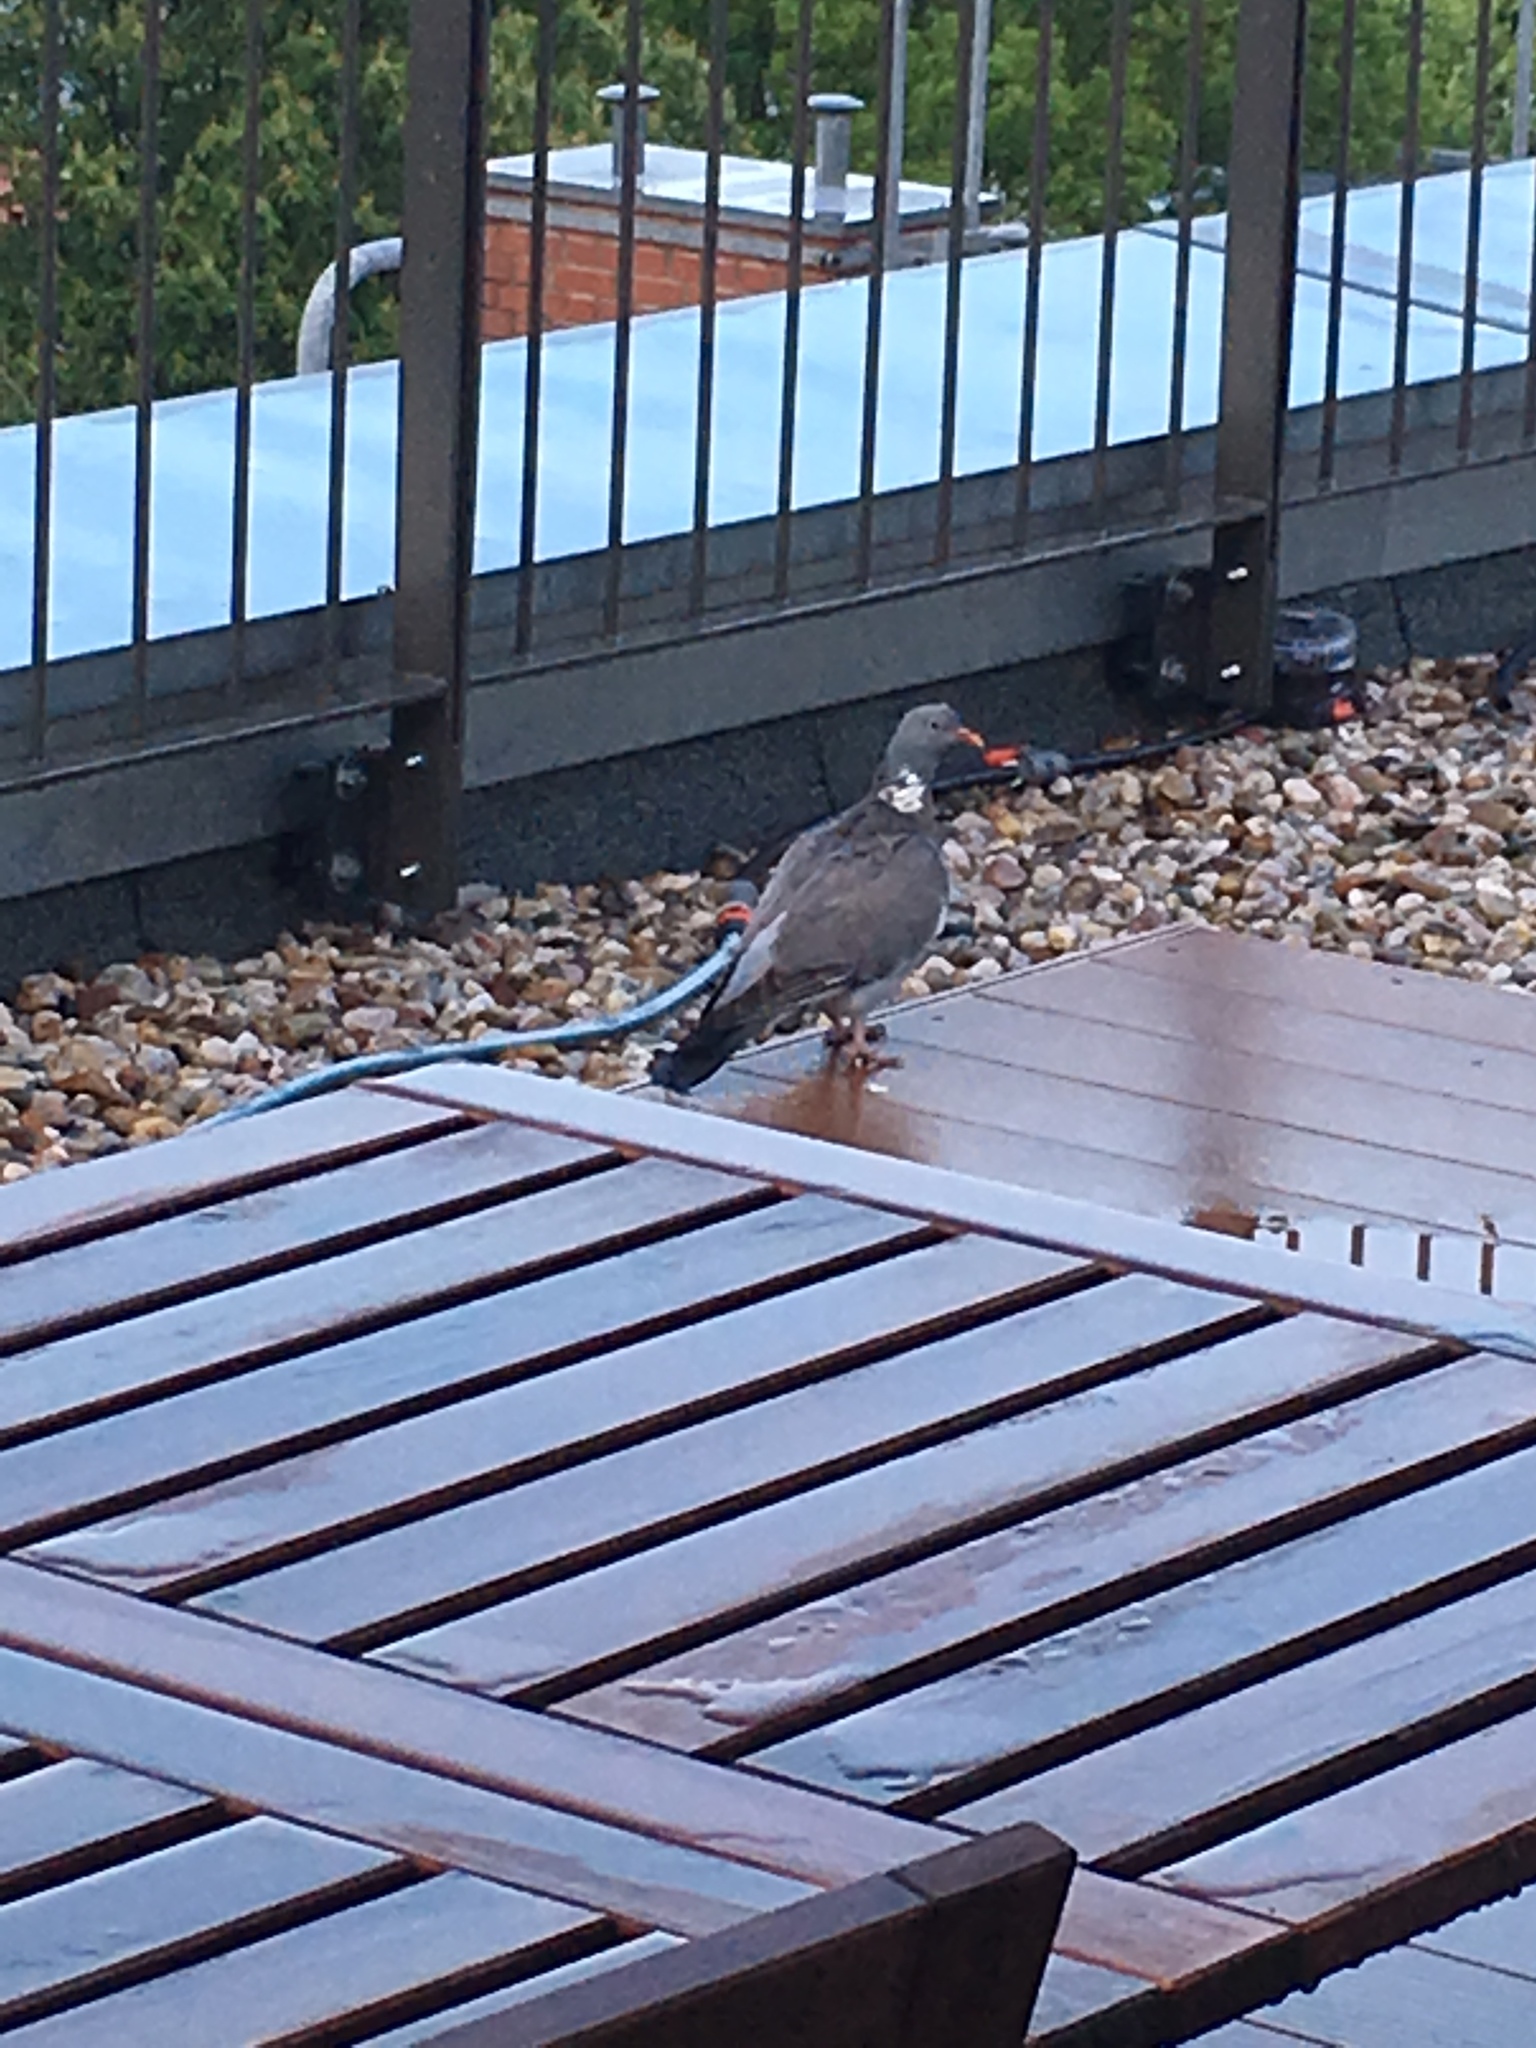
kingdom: Animalia
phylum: Chordata
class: Aves
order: Columbiformes
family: Columbidae
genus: Columba
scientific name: Columba palumbus
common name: Common wood pigeon
